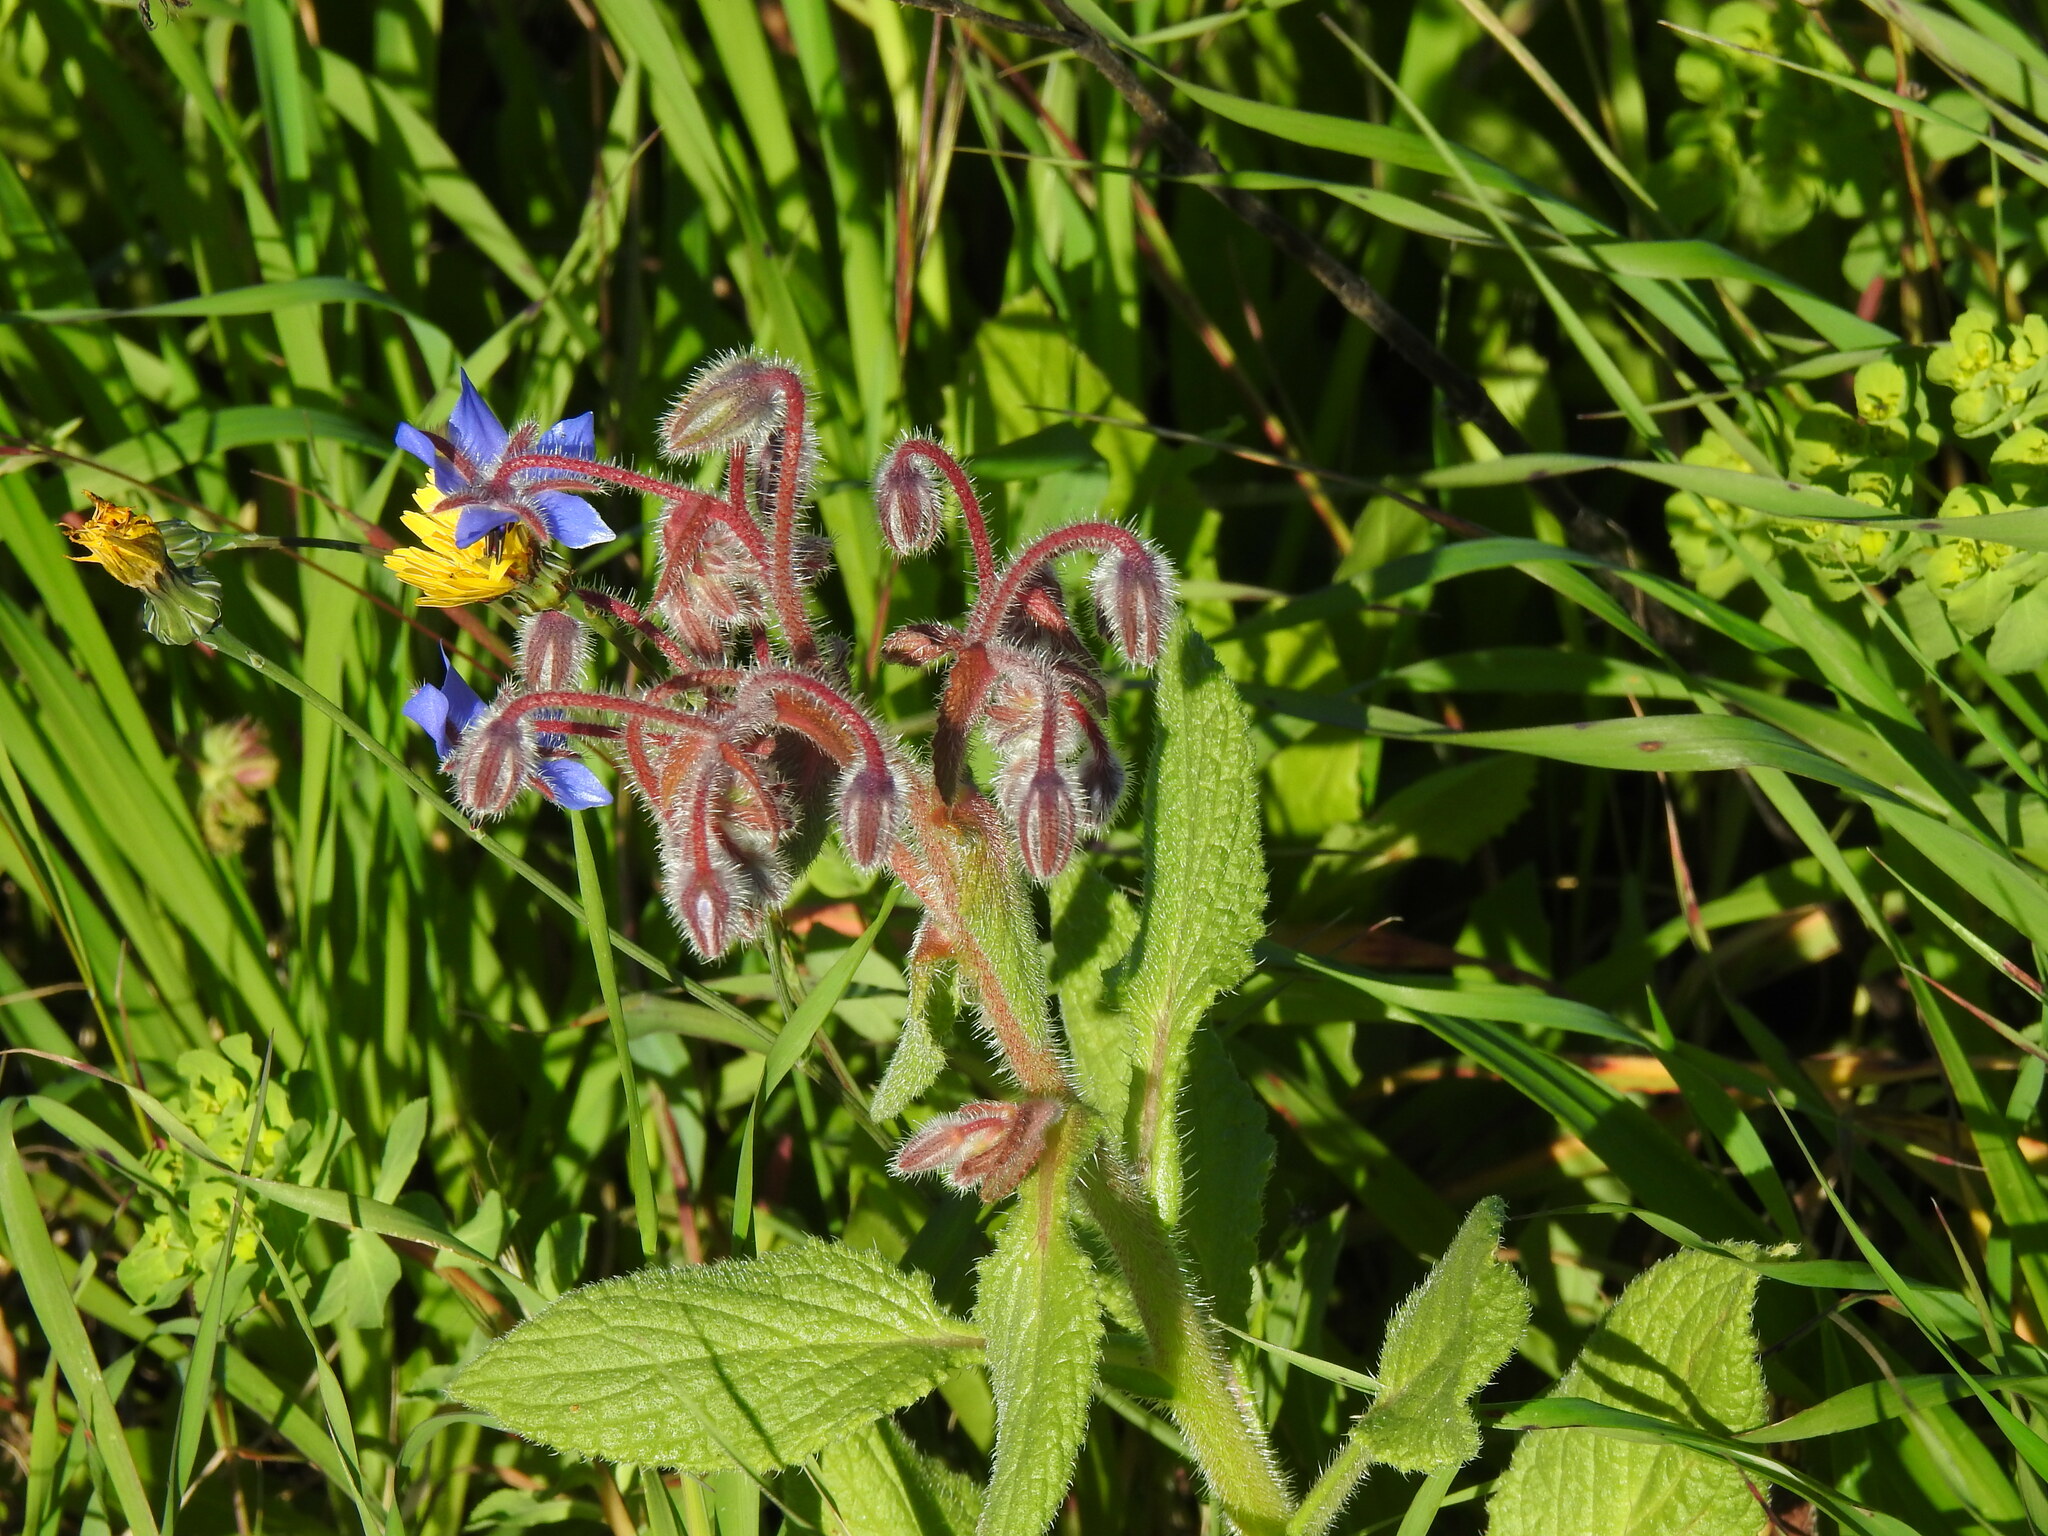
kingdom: Plantae
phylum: Tracheophyta
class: Magnoliopsida
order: Boraginales
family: Boraginaceae
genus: Borago
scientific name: Borago officinalis
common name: Borage
